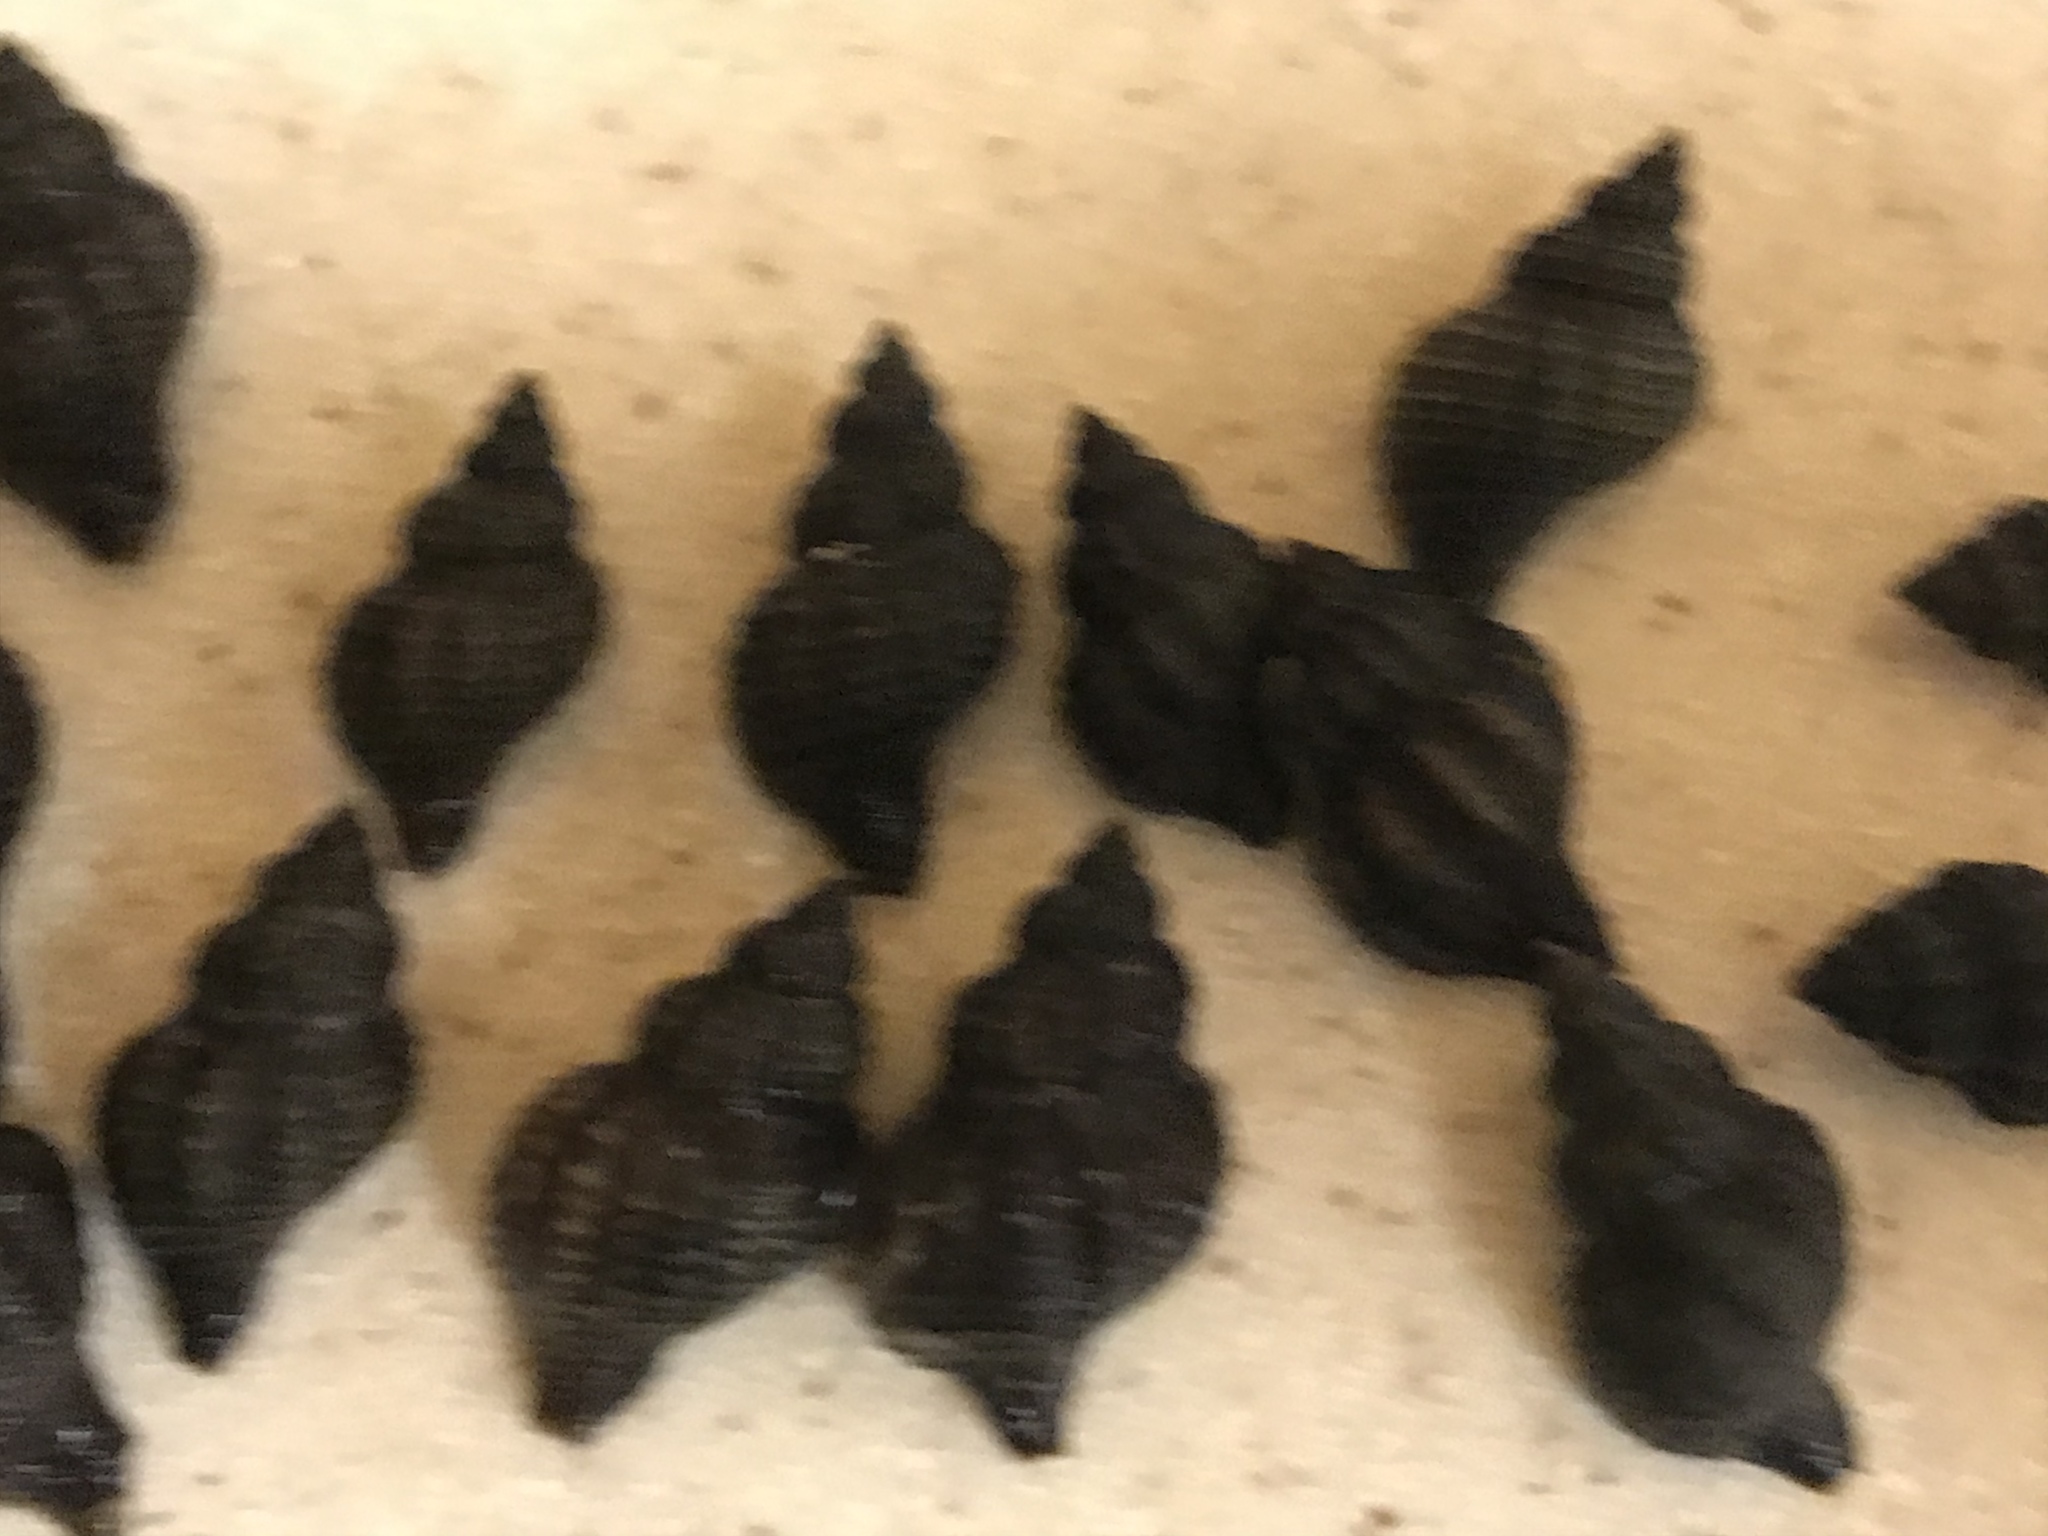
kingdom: Animalia
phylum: Mollusca
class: Gastropoda
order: Neogastropoda
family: Muricidae
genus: Urosalpinx
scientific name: Urosalpinx cinerea
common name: American sting winkle
